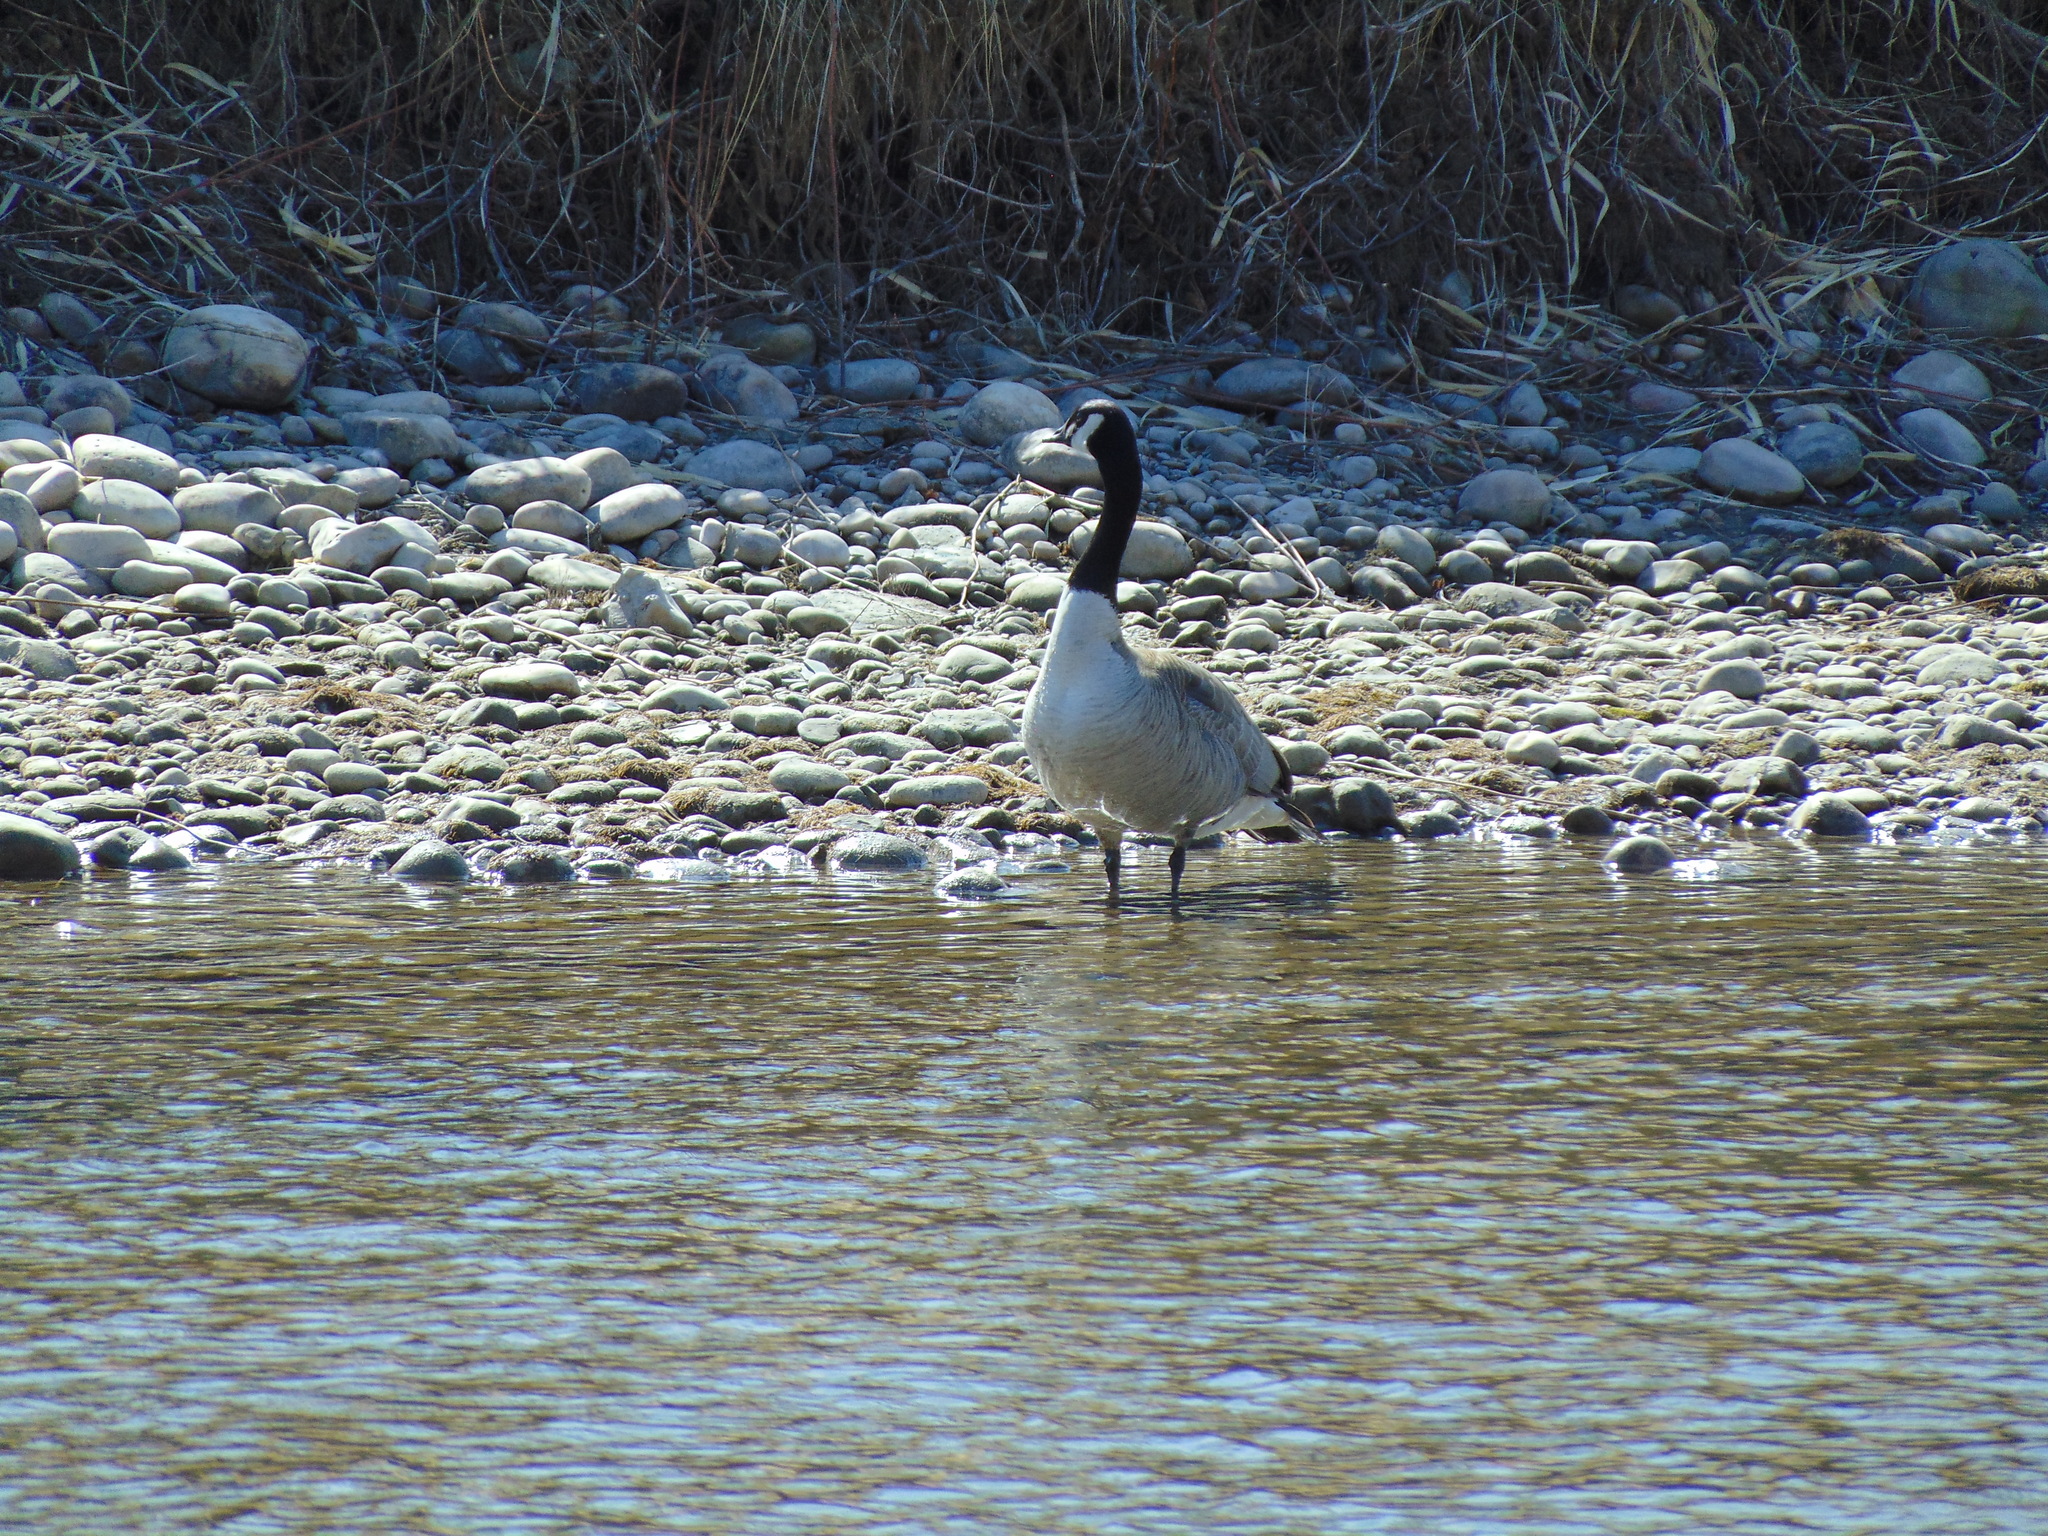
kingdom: Animalia
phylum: Chordata
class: Aves
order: Anseriformes
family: Anatidae
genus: Branta
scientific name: Branta canadensis
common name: Canada goose
